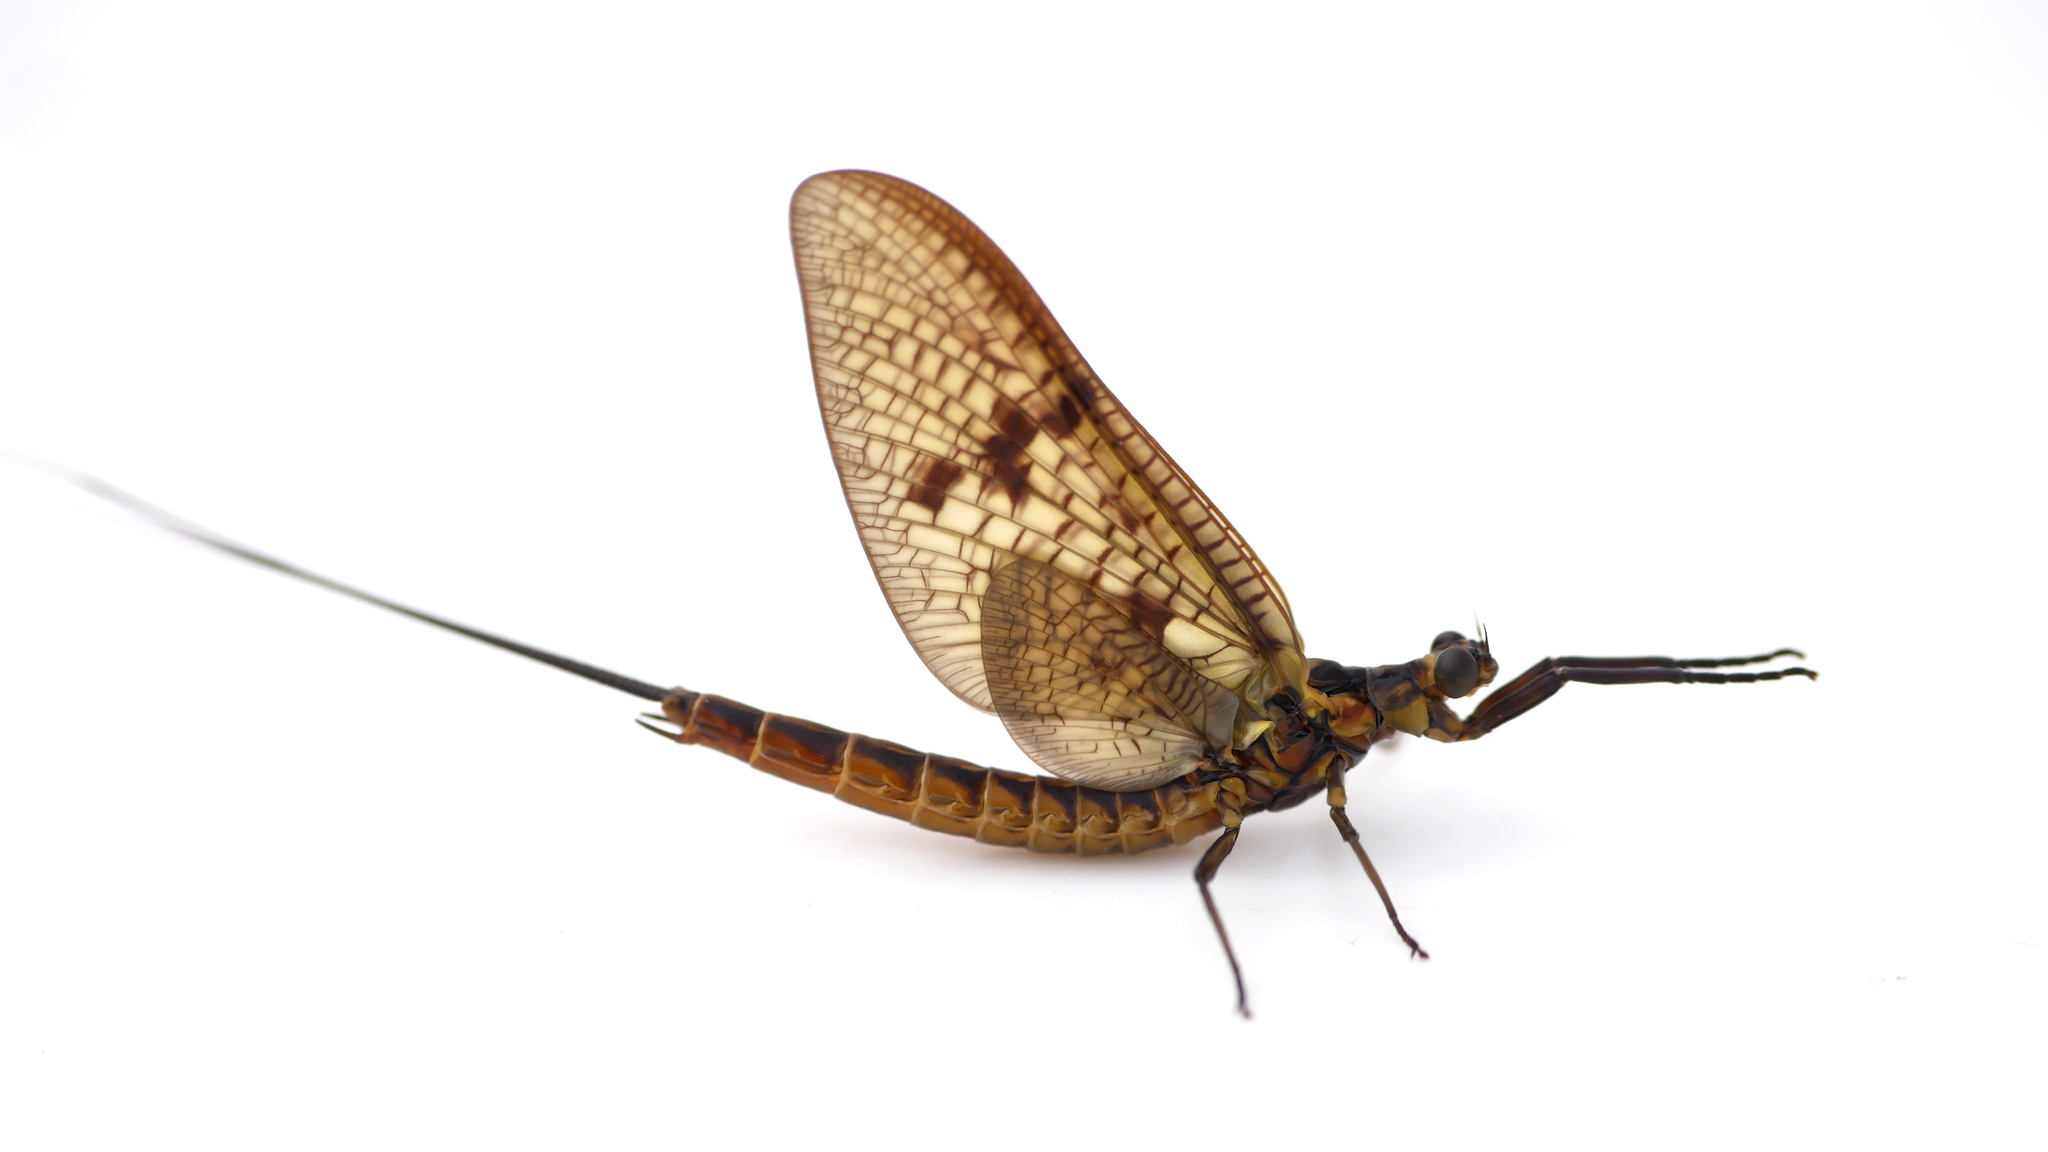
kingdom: Animalia
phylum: Arthropoda
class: Insecta
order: Ephemeroptera
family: Ephemeridae
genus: Ephemera
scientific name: Ephemera vulgata
